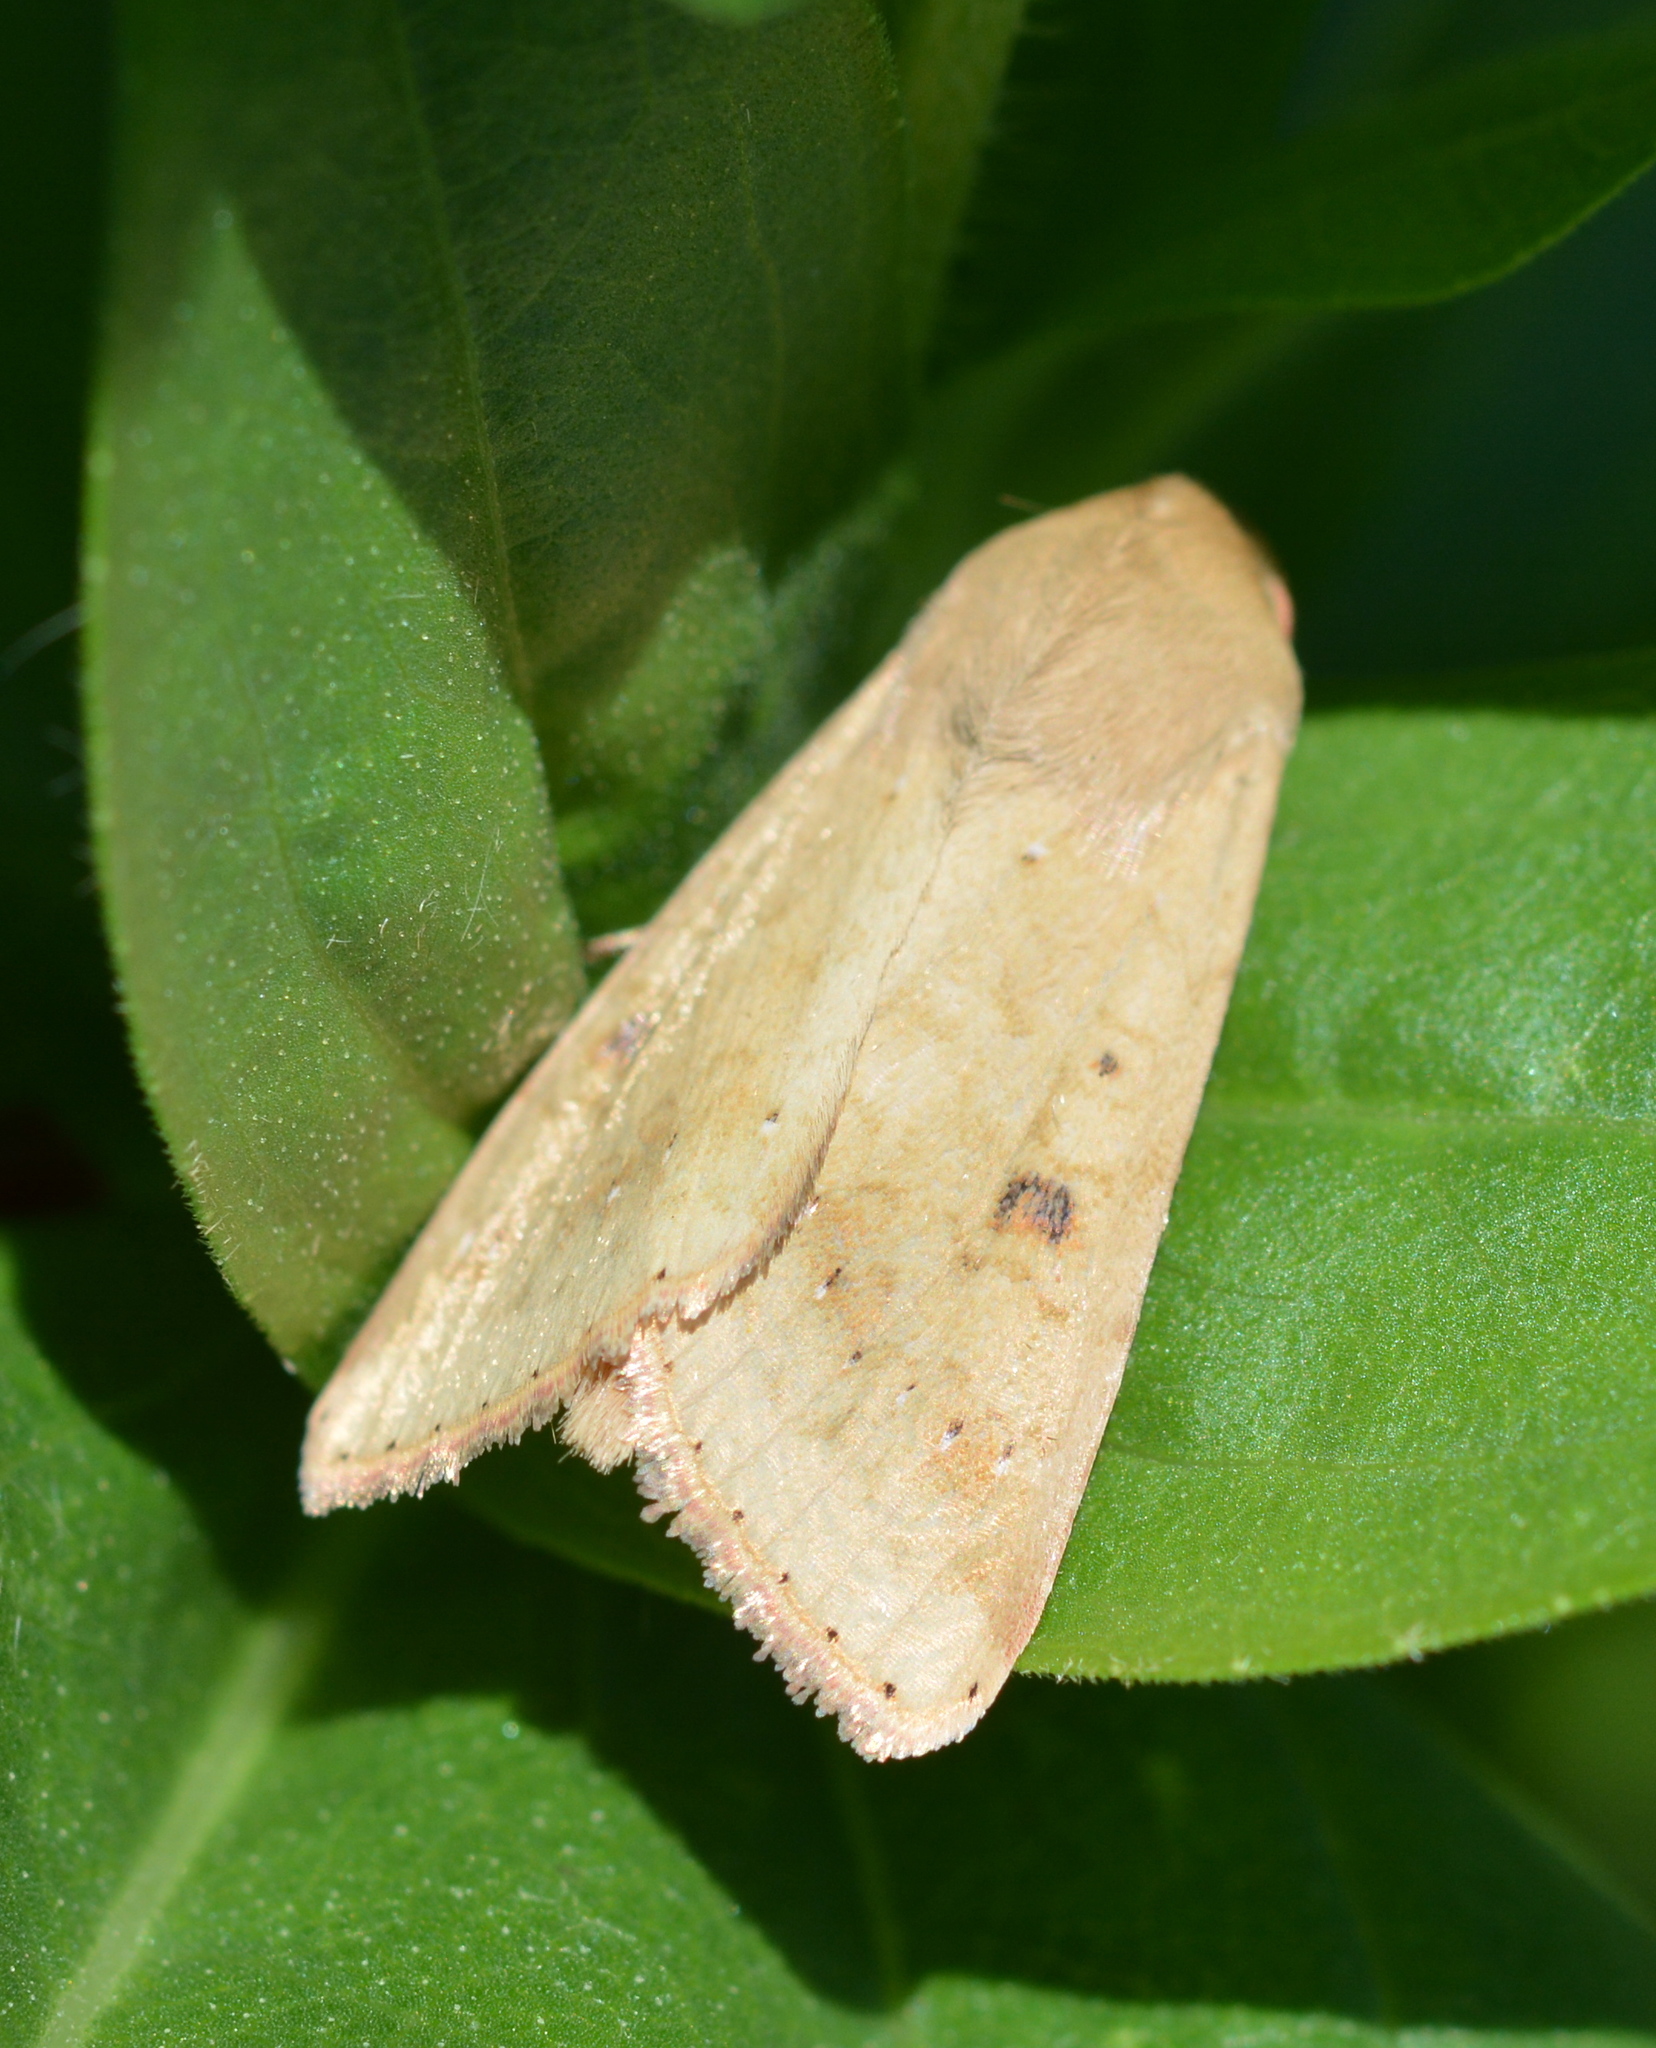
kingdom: Animalia
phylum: Arthropoda
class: Insecta
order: Lepidoptera
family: Noctuidae
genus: Helicoverpa
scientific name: Helicoverpa zea
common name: Bollworm
